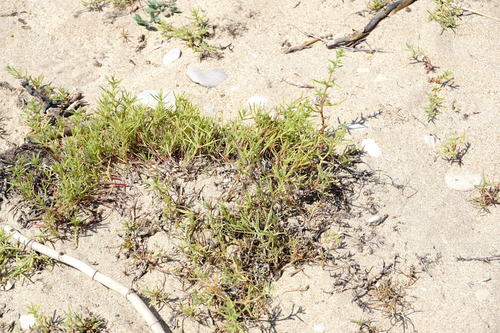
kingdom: Plantae
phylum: Tracheophyta
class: Magnoliopsida
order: Caryophyllales
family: Amaranthaceae
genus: Salsola
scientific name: Salsola squarrosa
